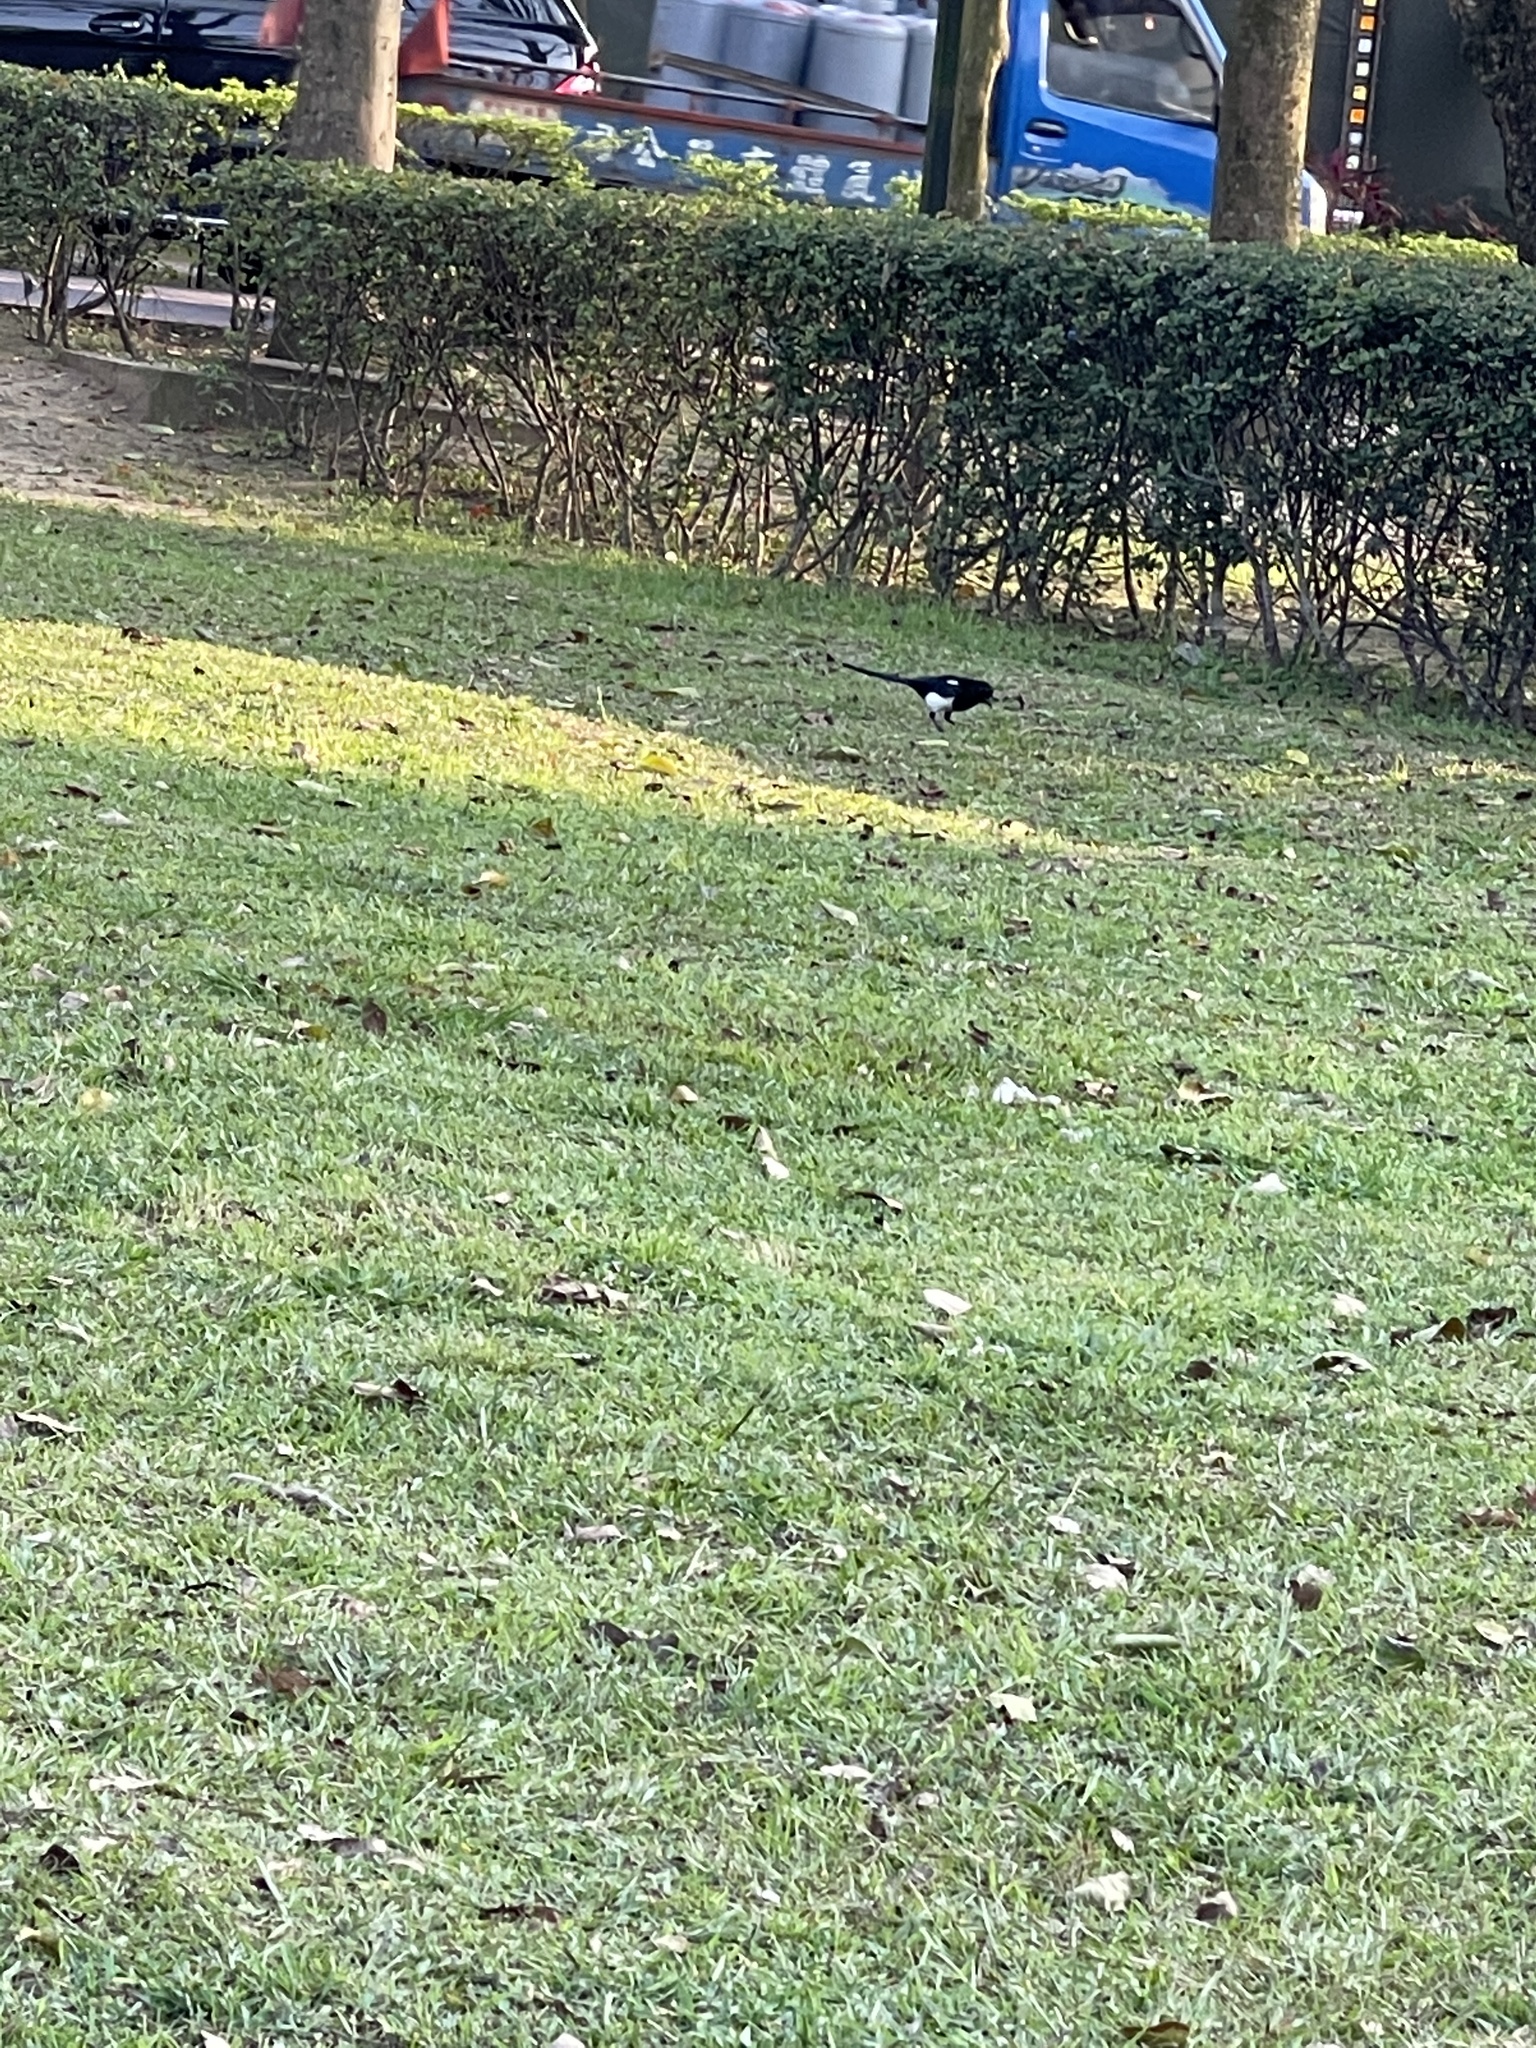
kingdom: Animalia
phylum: Chordata
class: Aves
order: Passeriformes
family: Corvidae
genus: Pica
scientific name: Pica serica
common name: Oriental magpie
